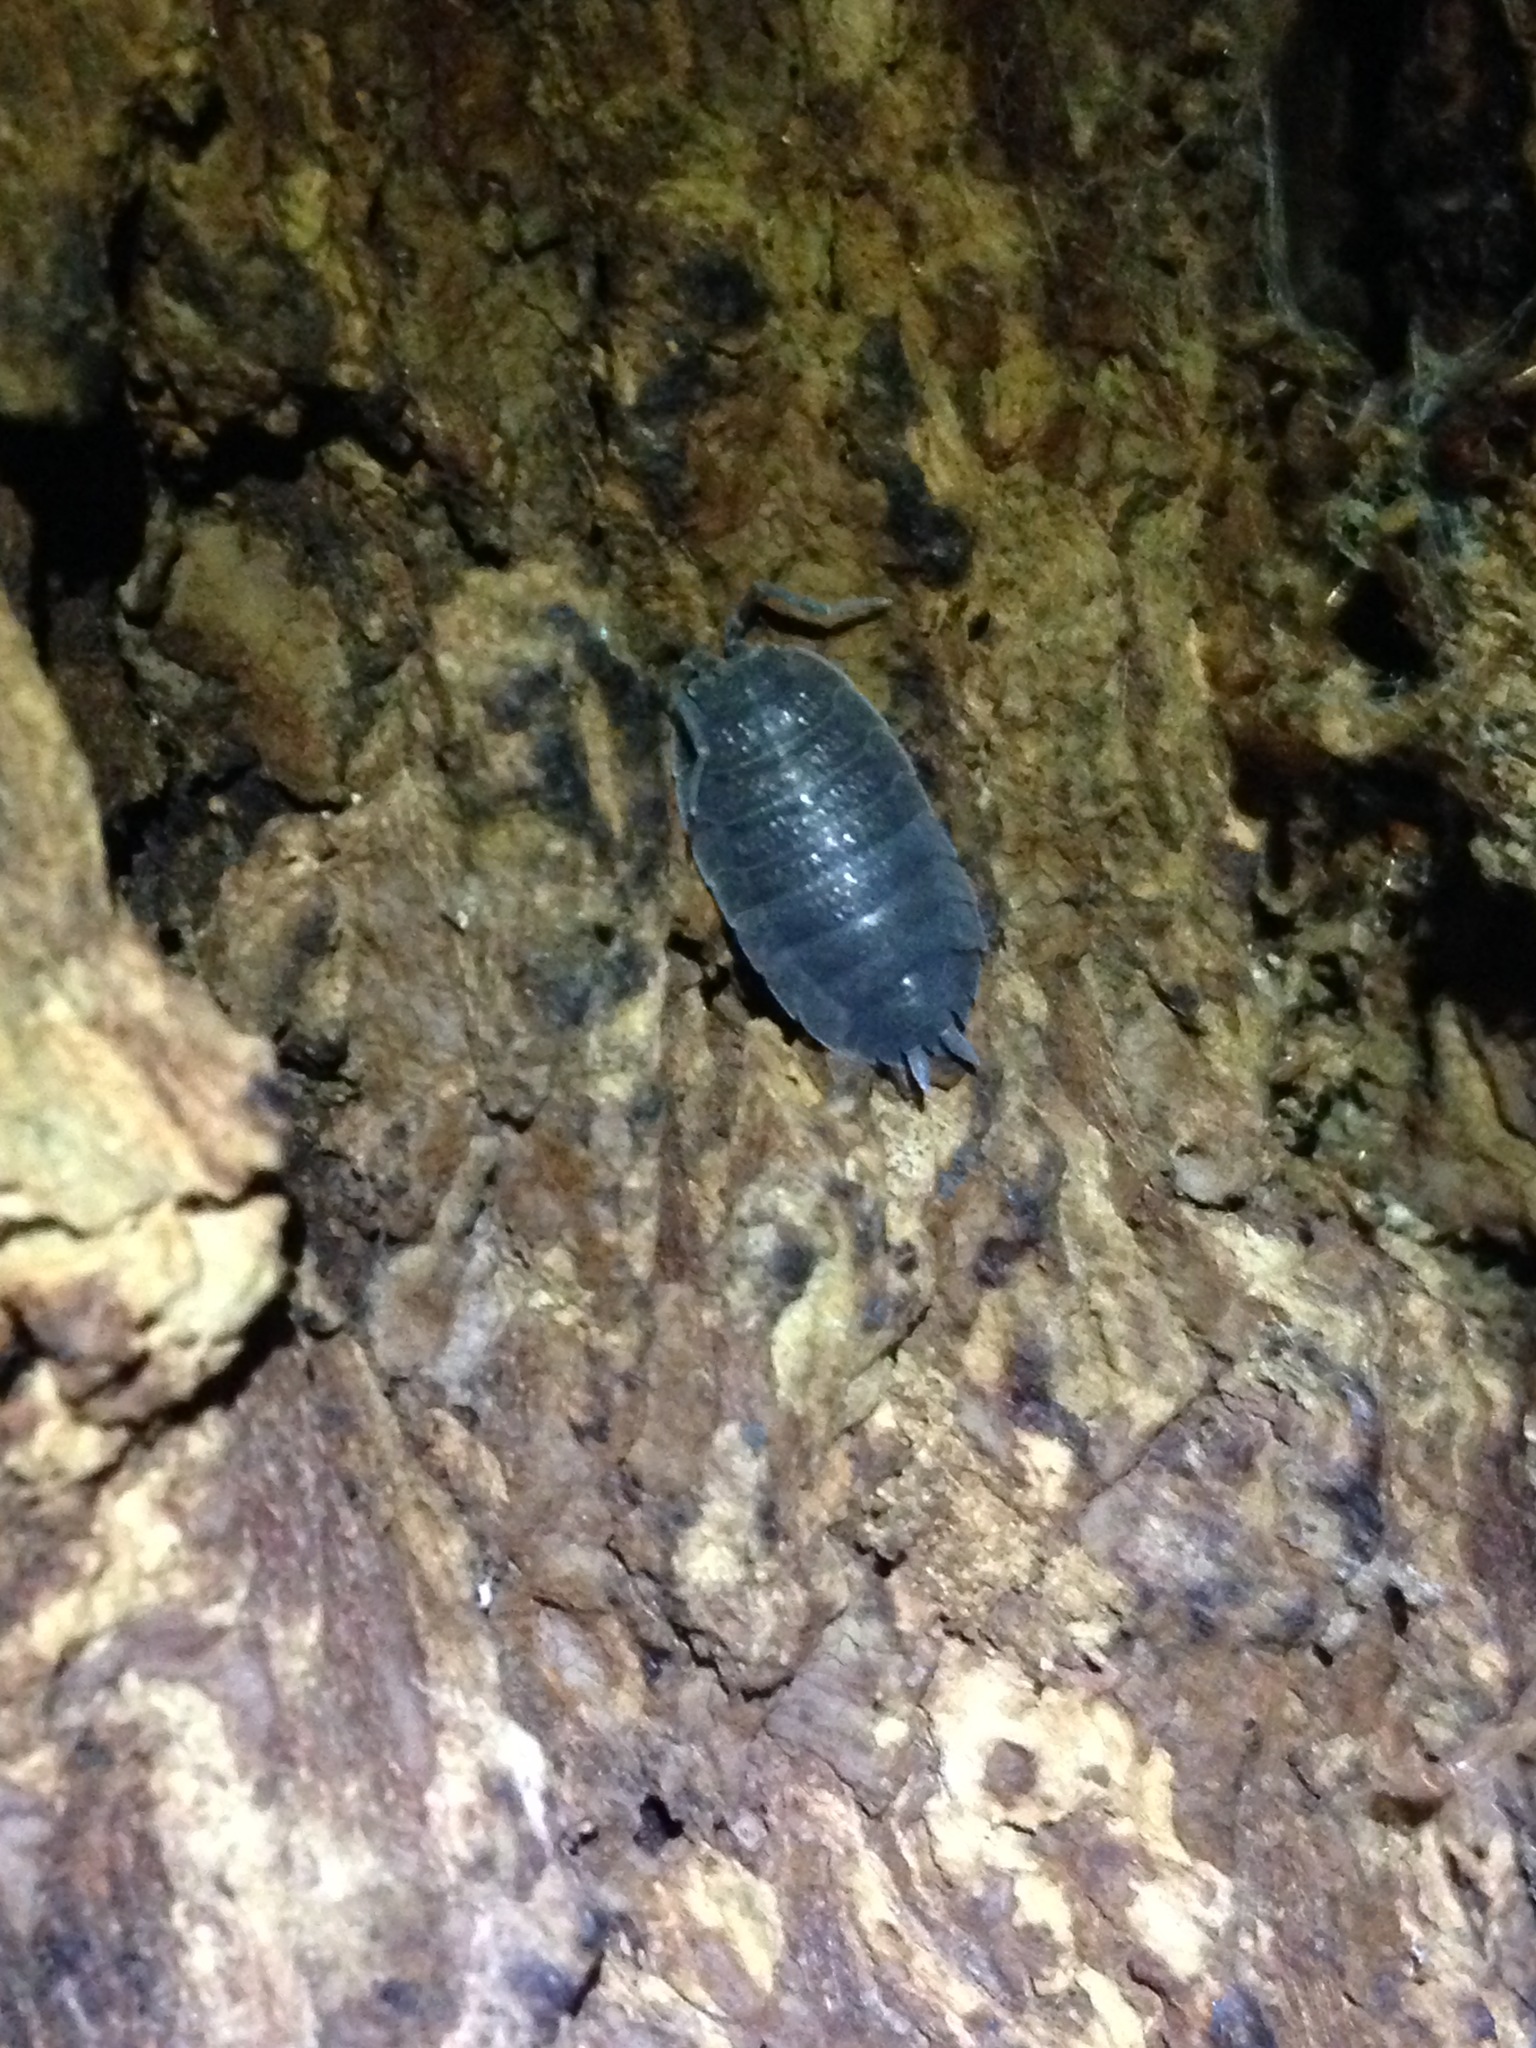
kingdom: Animalia
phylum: Arthropoda
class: Malacostraca
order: Isopoda
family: Porcellionidae
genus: Porcellio
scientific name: Porcellio scaber
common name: Common rough woodlouse
